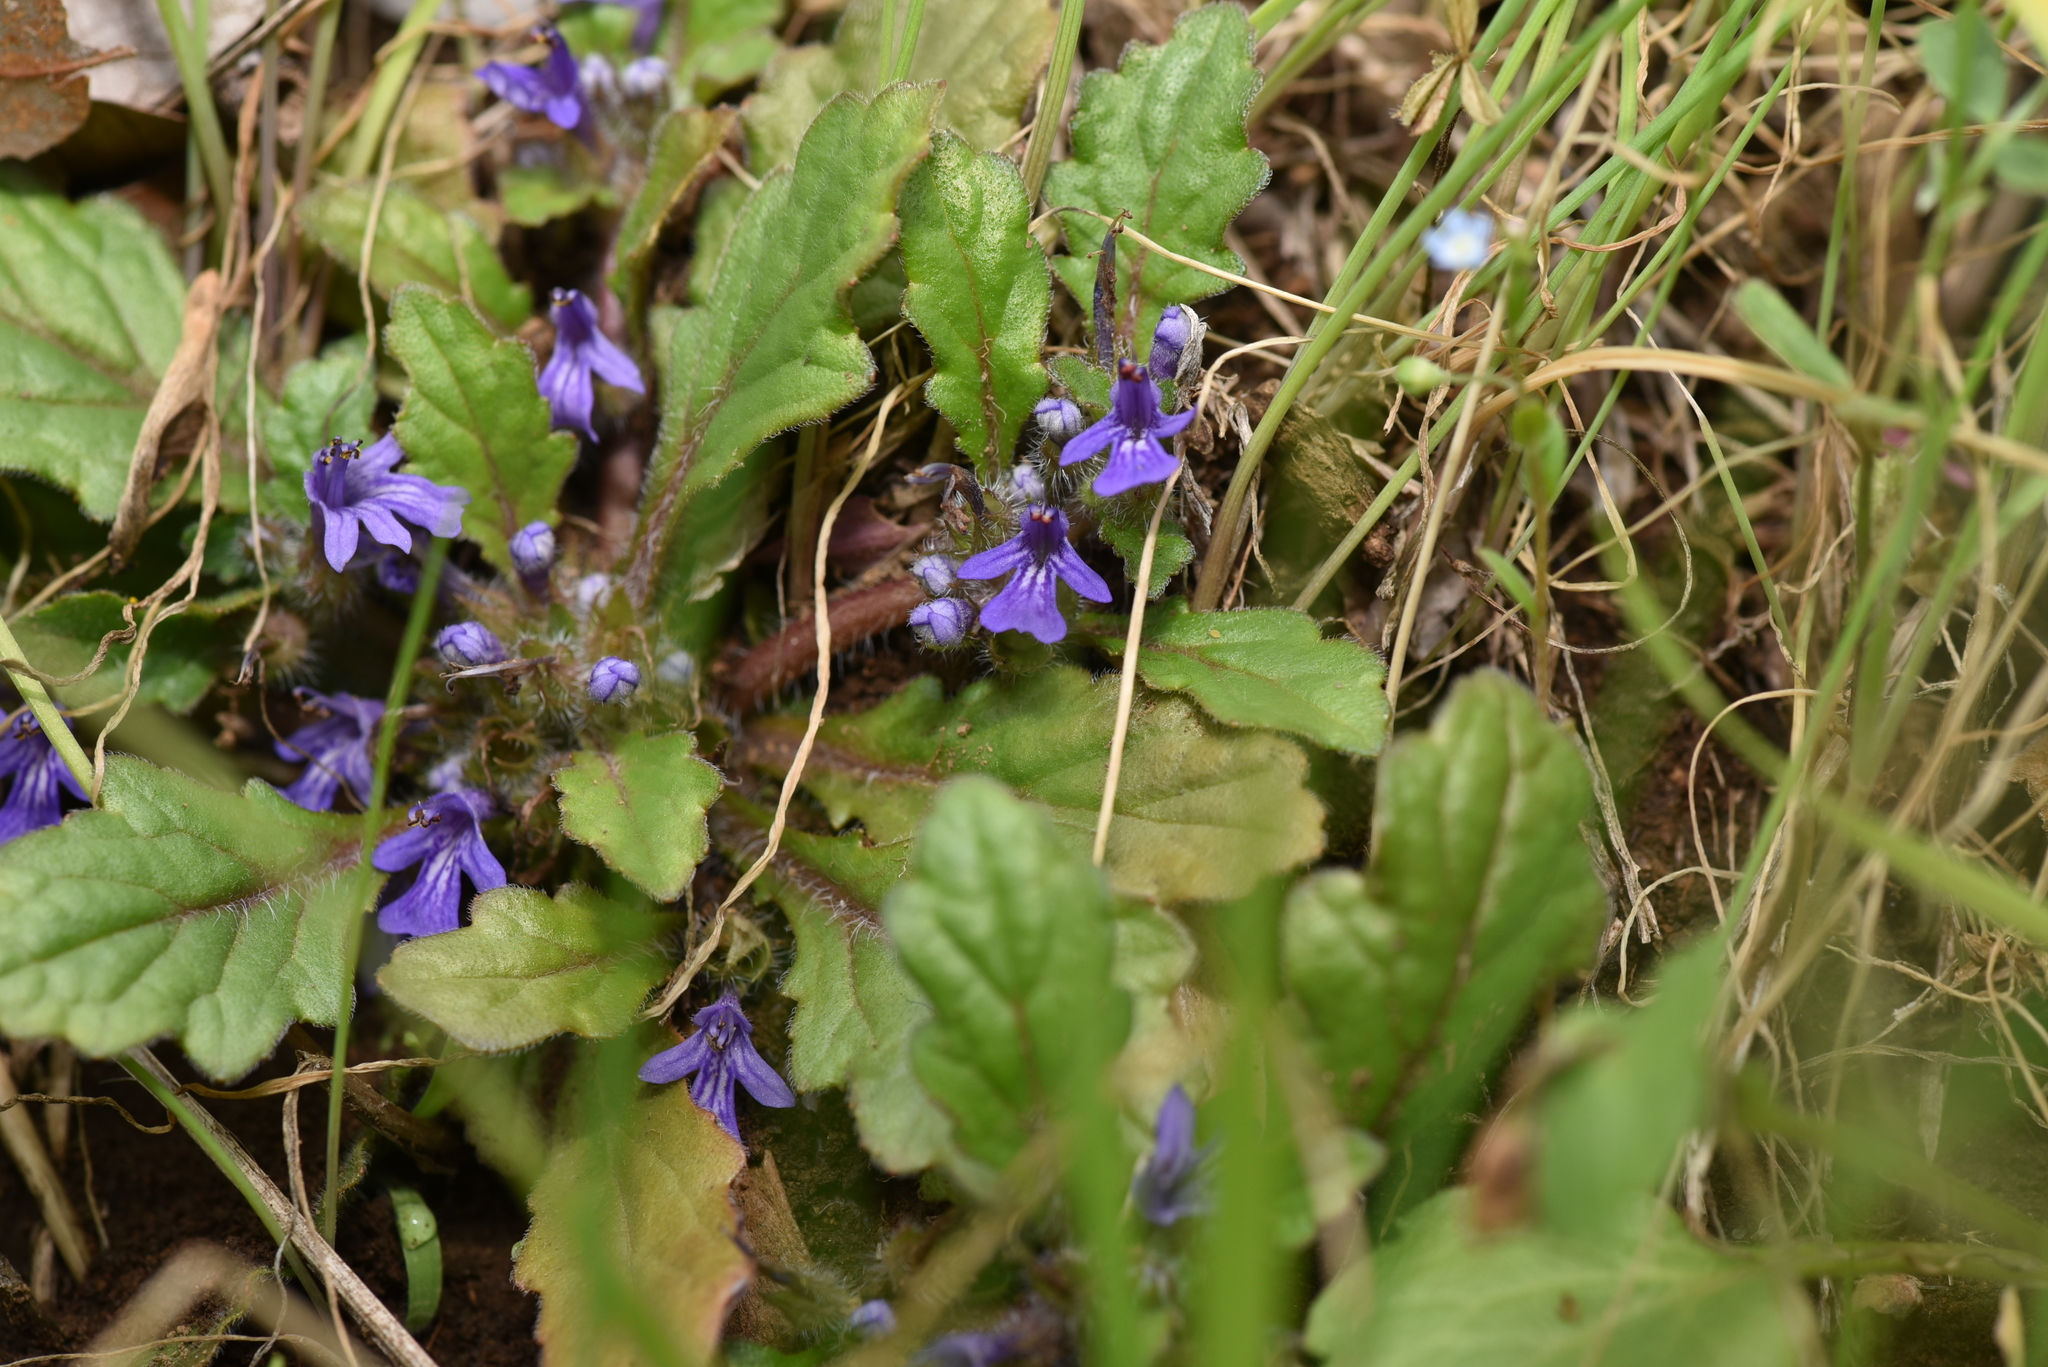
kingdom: Plantae
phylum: Tracheophyta
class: Magnoliopsida
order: Lamiales
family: Lamiaceae
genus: Ajuga
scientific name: Ajuga decumbens
